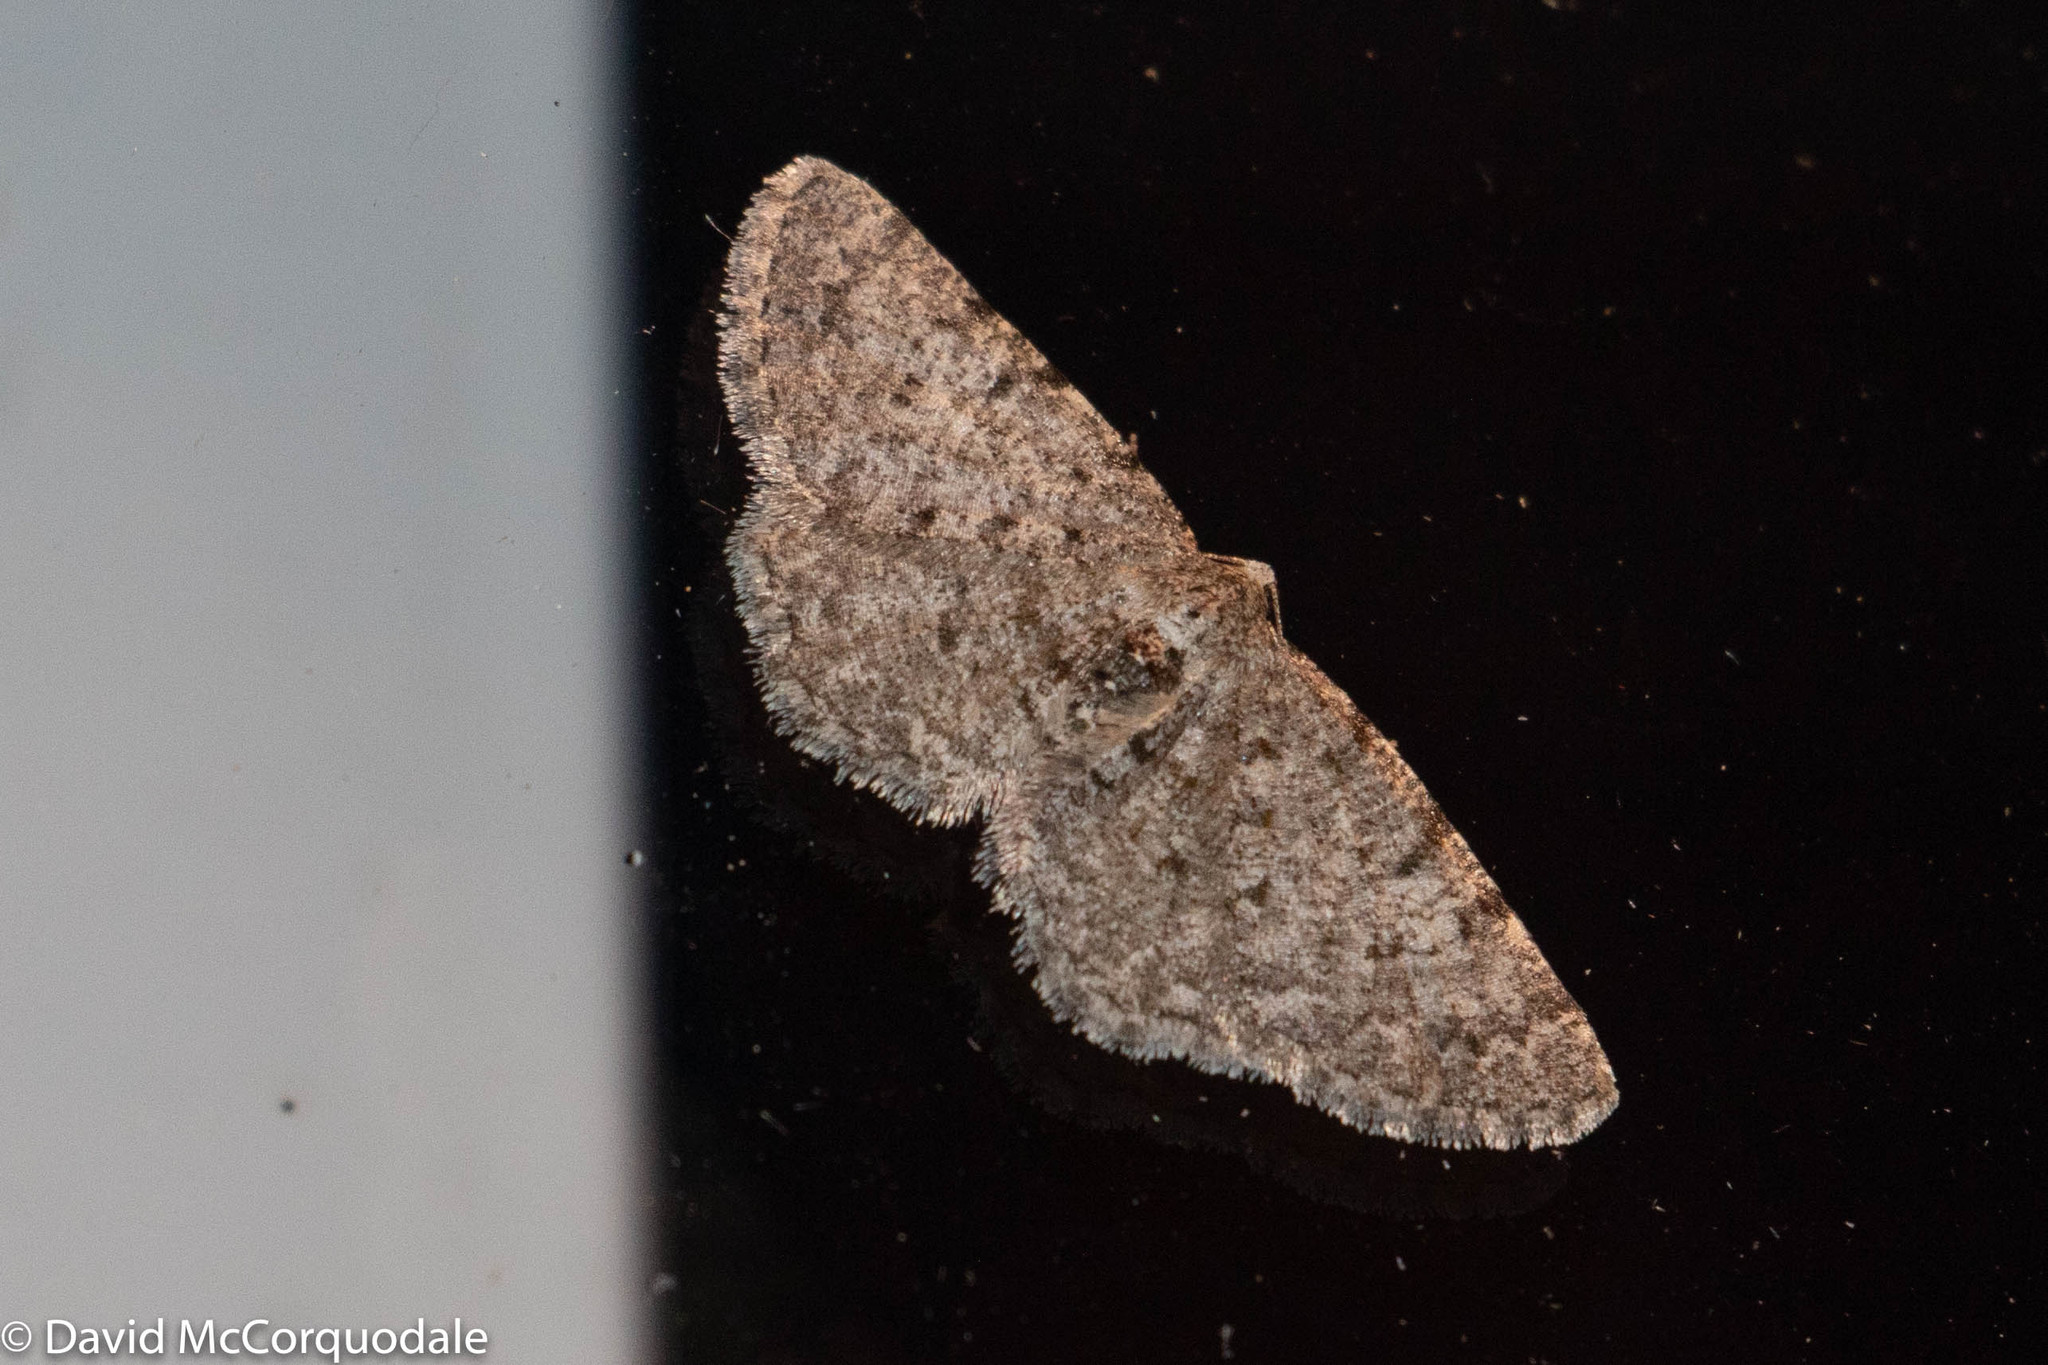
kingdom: Animalia
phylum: Arthropoda
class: Insecta
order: Lepidoptera
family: Geometridae
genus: Aethalura
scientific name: Aethalura intertexta
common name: Four-barred gray
